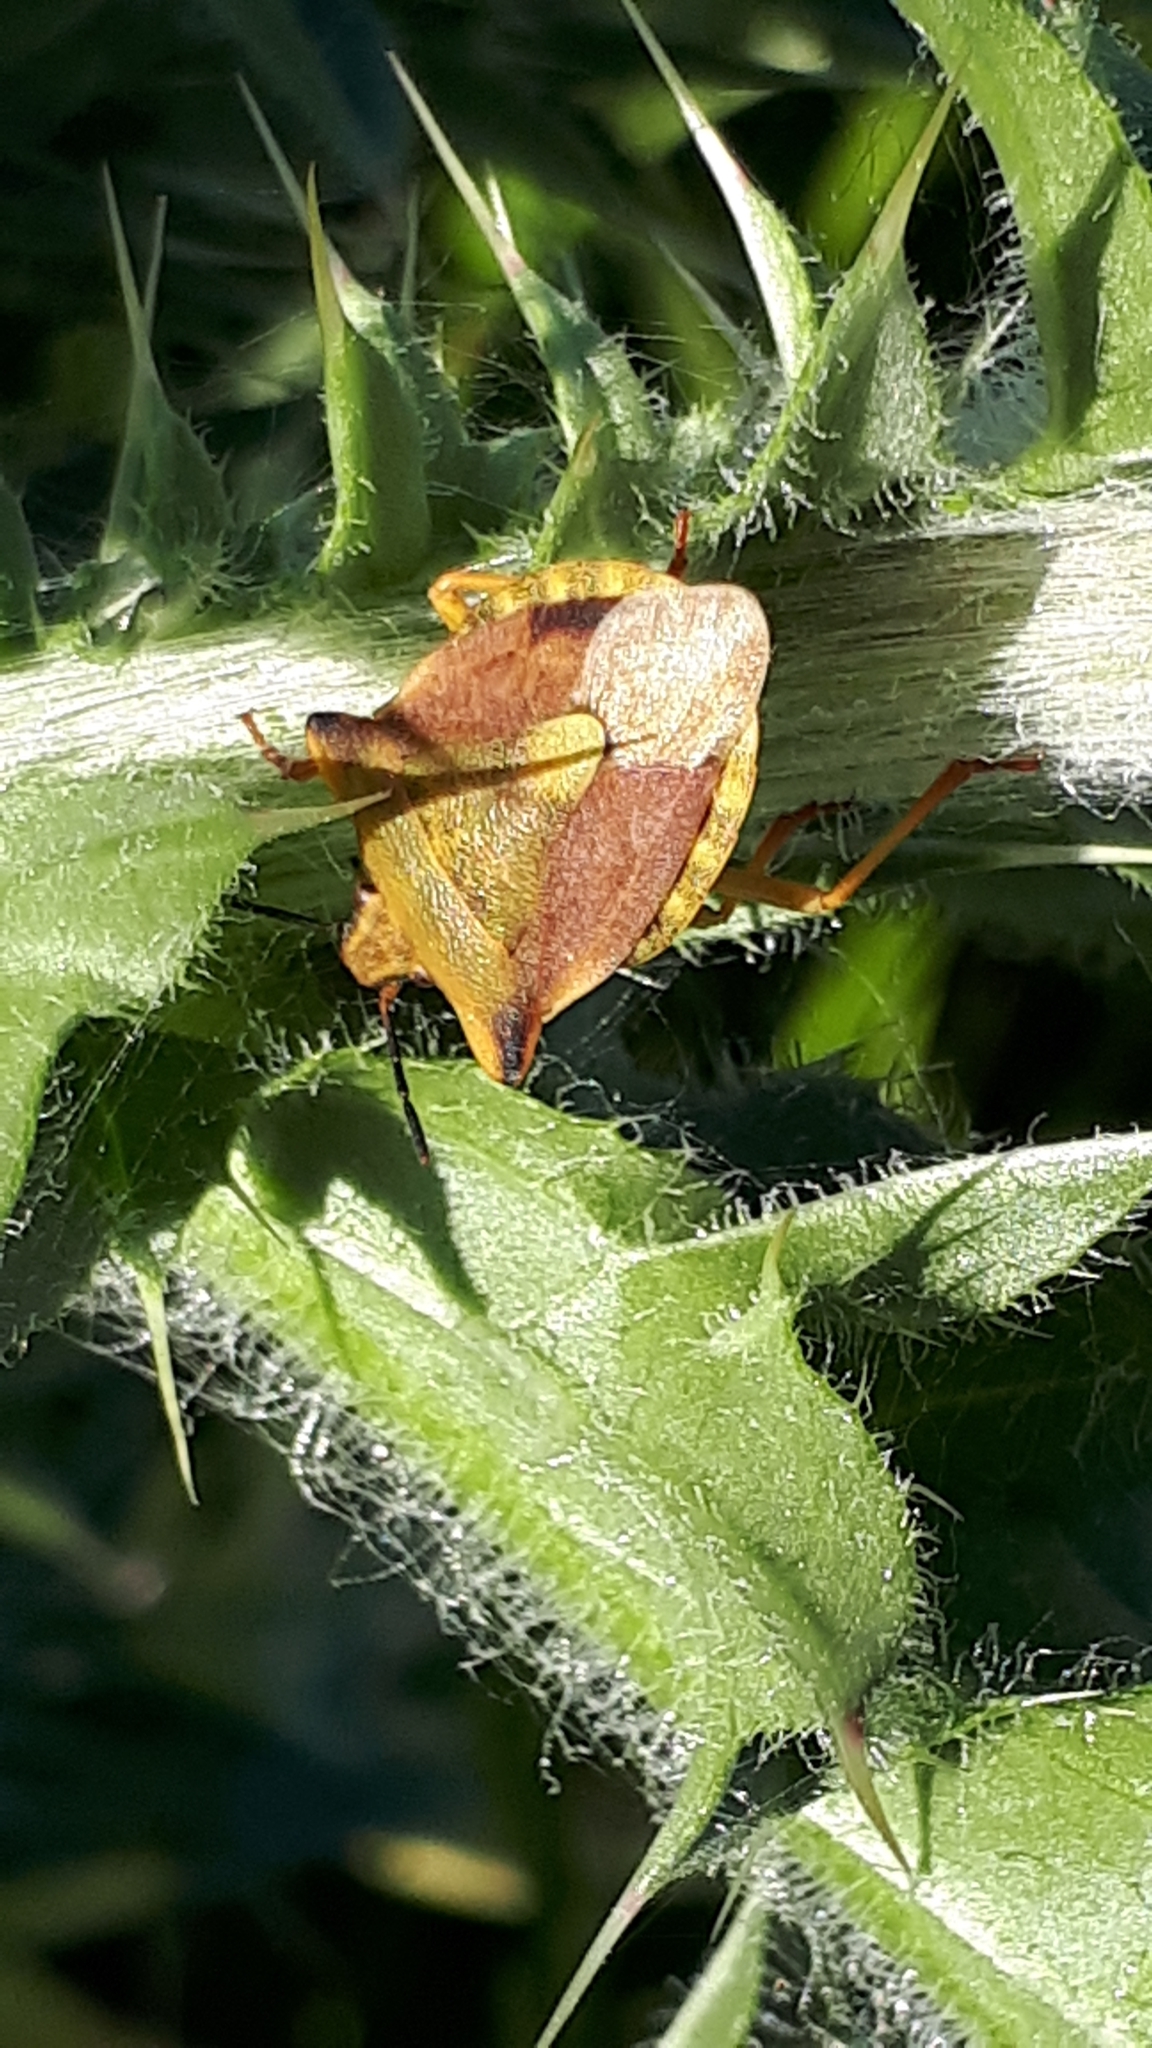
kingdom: Animalia
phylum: Arthropoda
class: Insecta
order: Hemiptera
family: Pentatomidae
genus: Carpocoris
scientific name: Carpocoris fuscispinus
